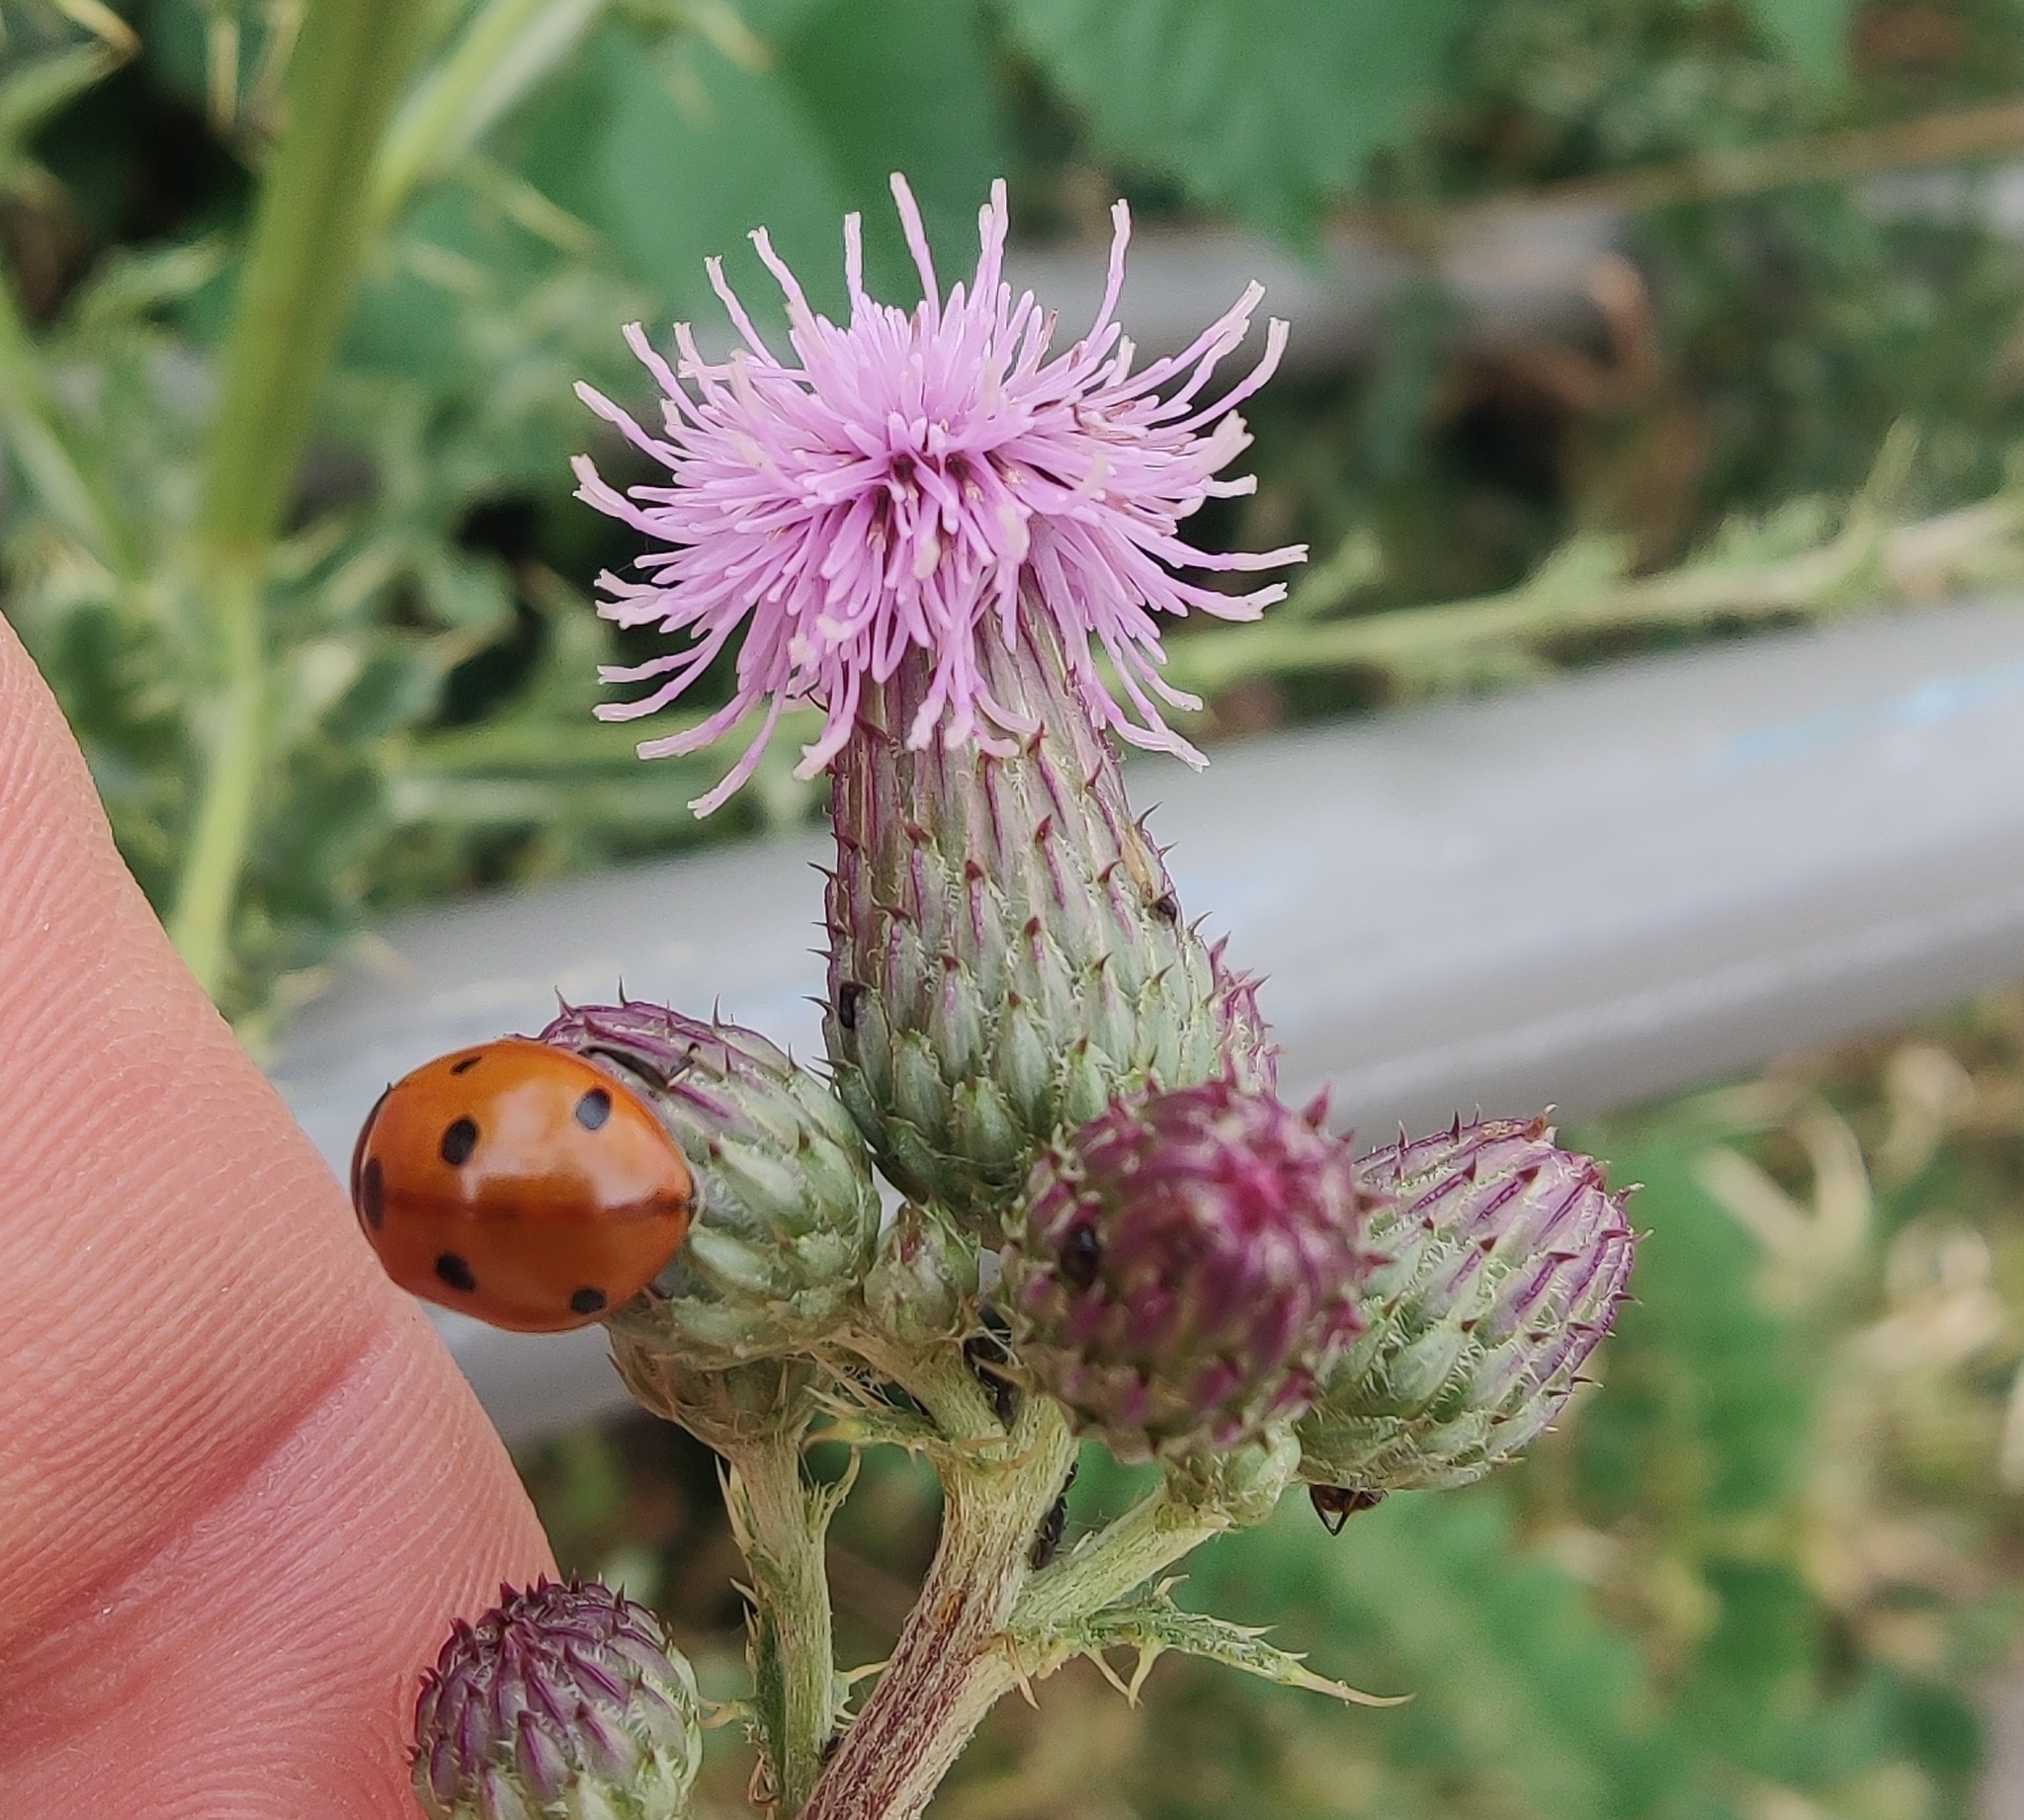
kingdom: Animalia
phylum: Arthropoda
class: Insecta
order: Coleoptera
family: Coccinellidae
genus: Coccinella
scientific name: Coccinella septempunctata
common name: Sevenspotted lady beetle
